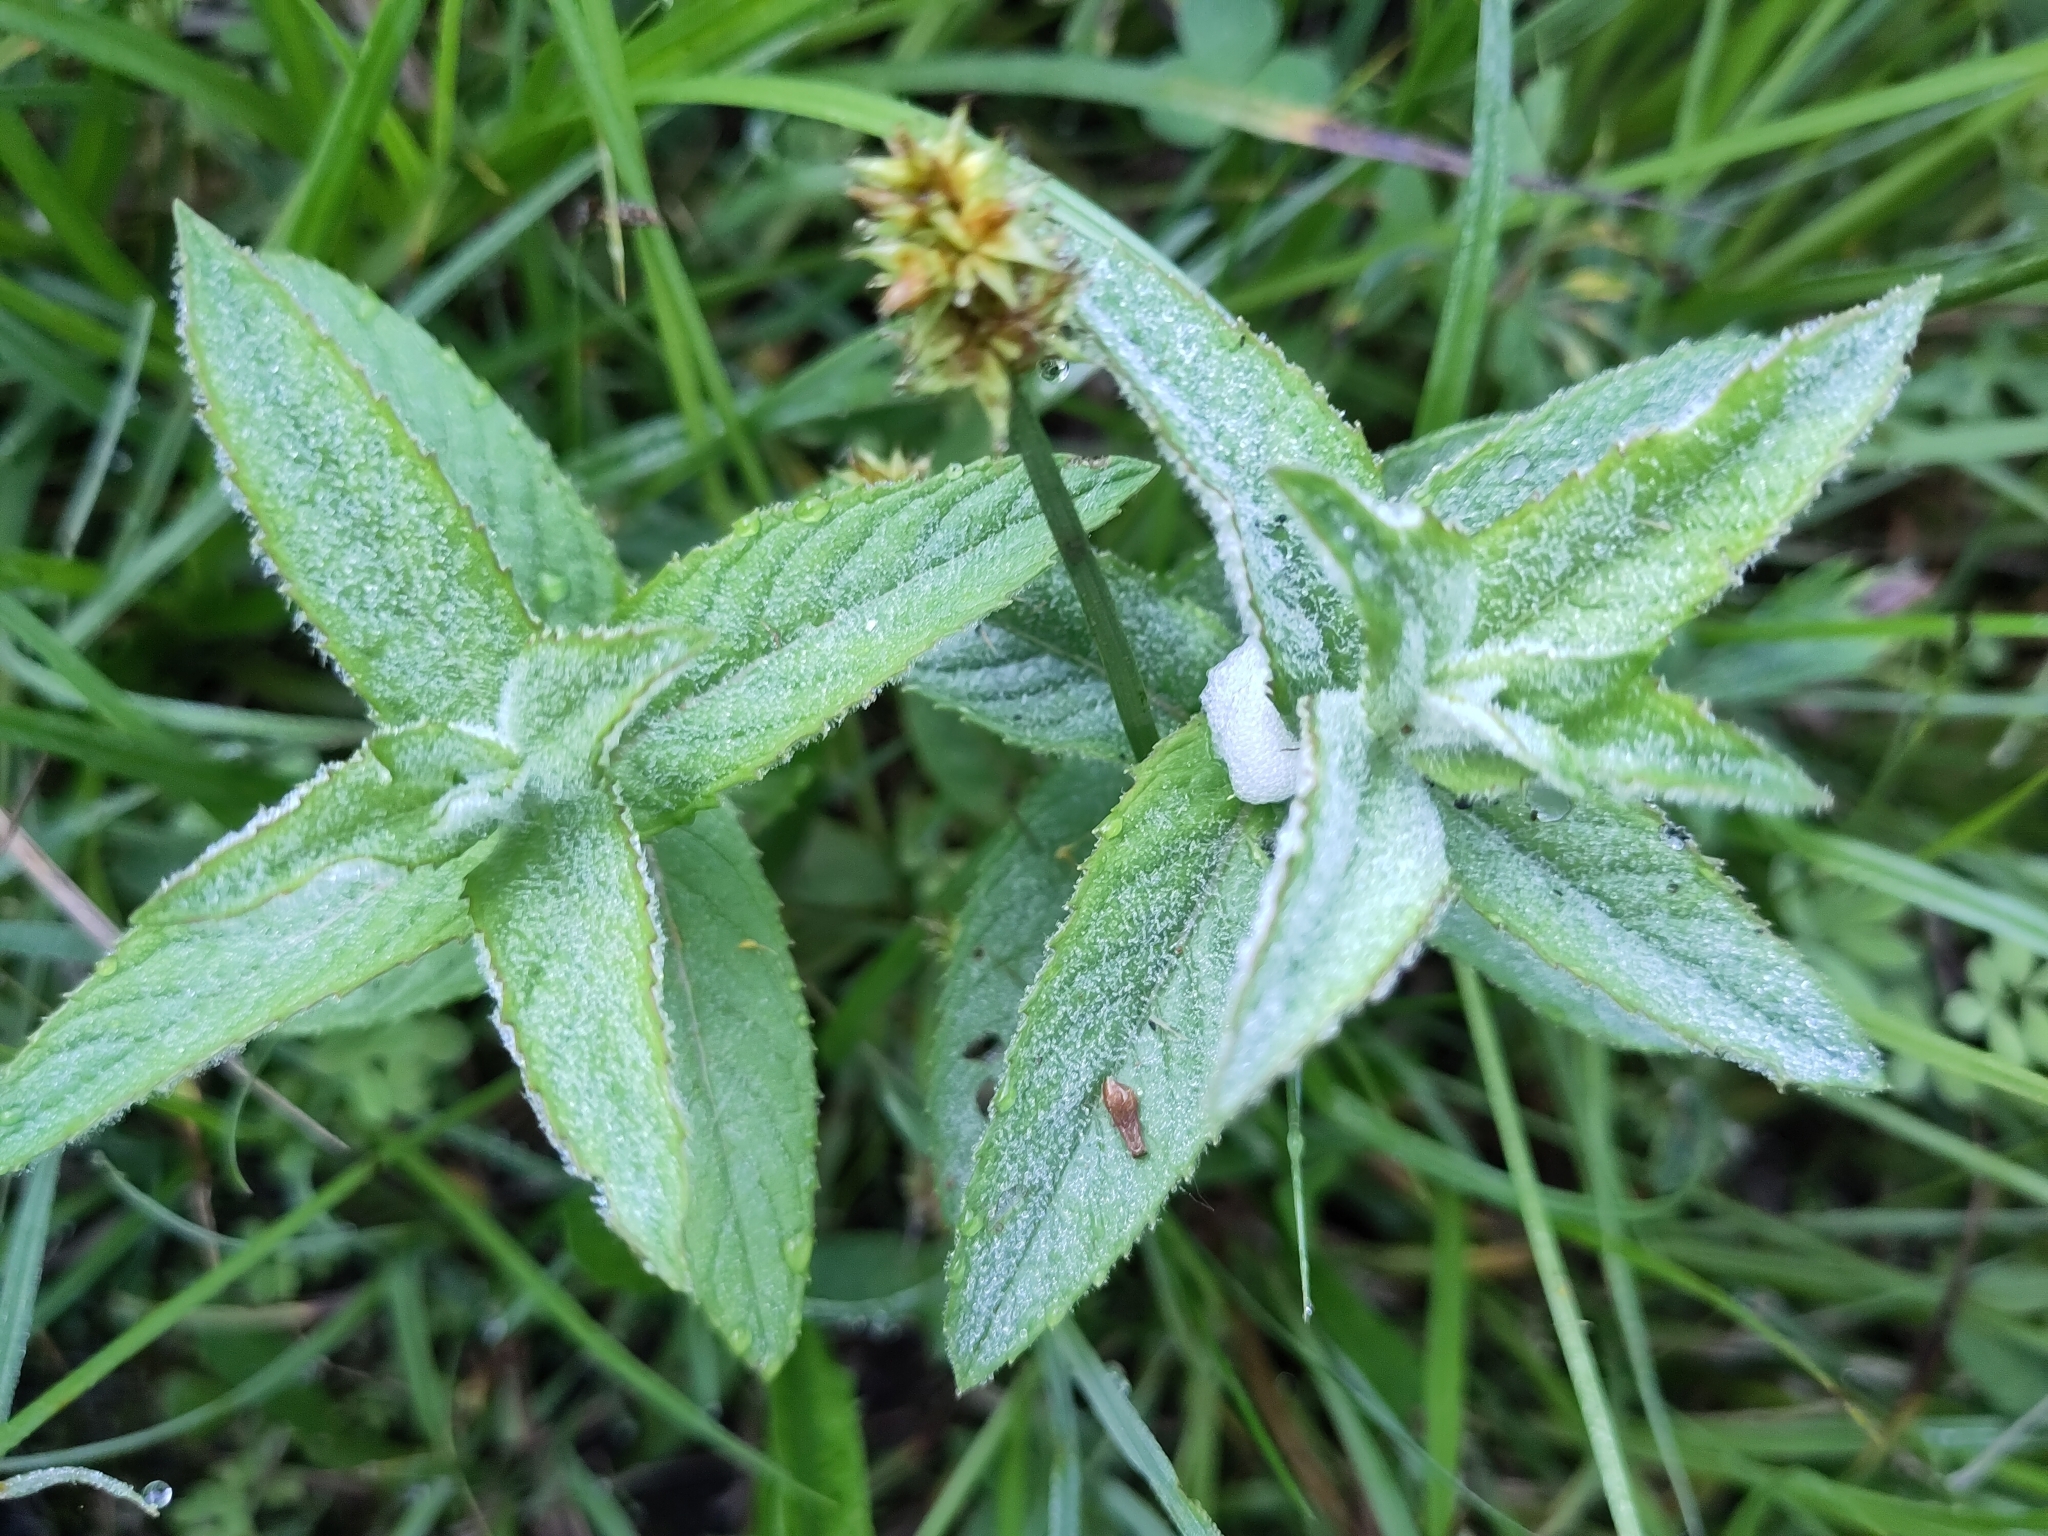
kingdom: Plantae
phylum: Tracheophyta
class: Magnoliopsida
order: Lamiales
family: Lamiaceae
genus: Mentha
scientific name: Mentha longifolia
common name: Horse mint
